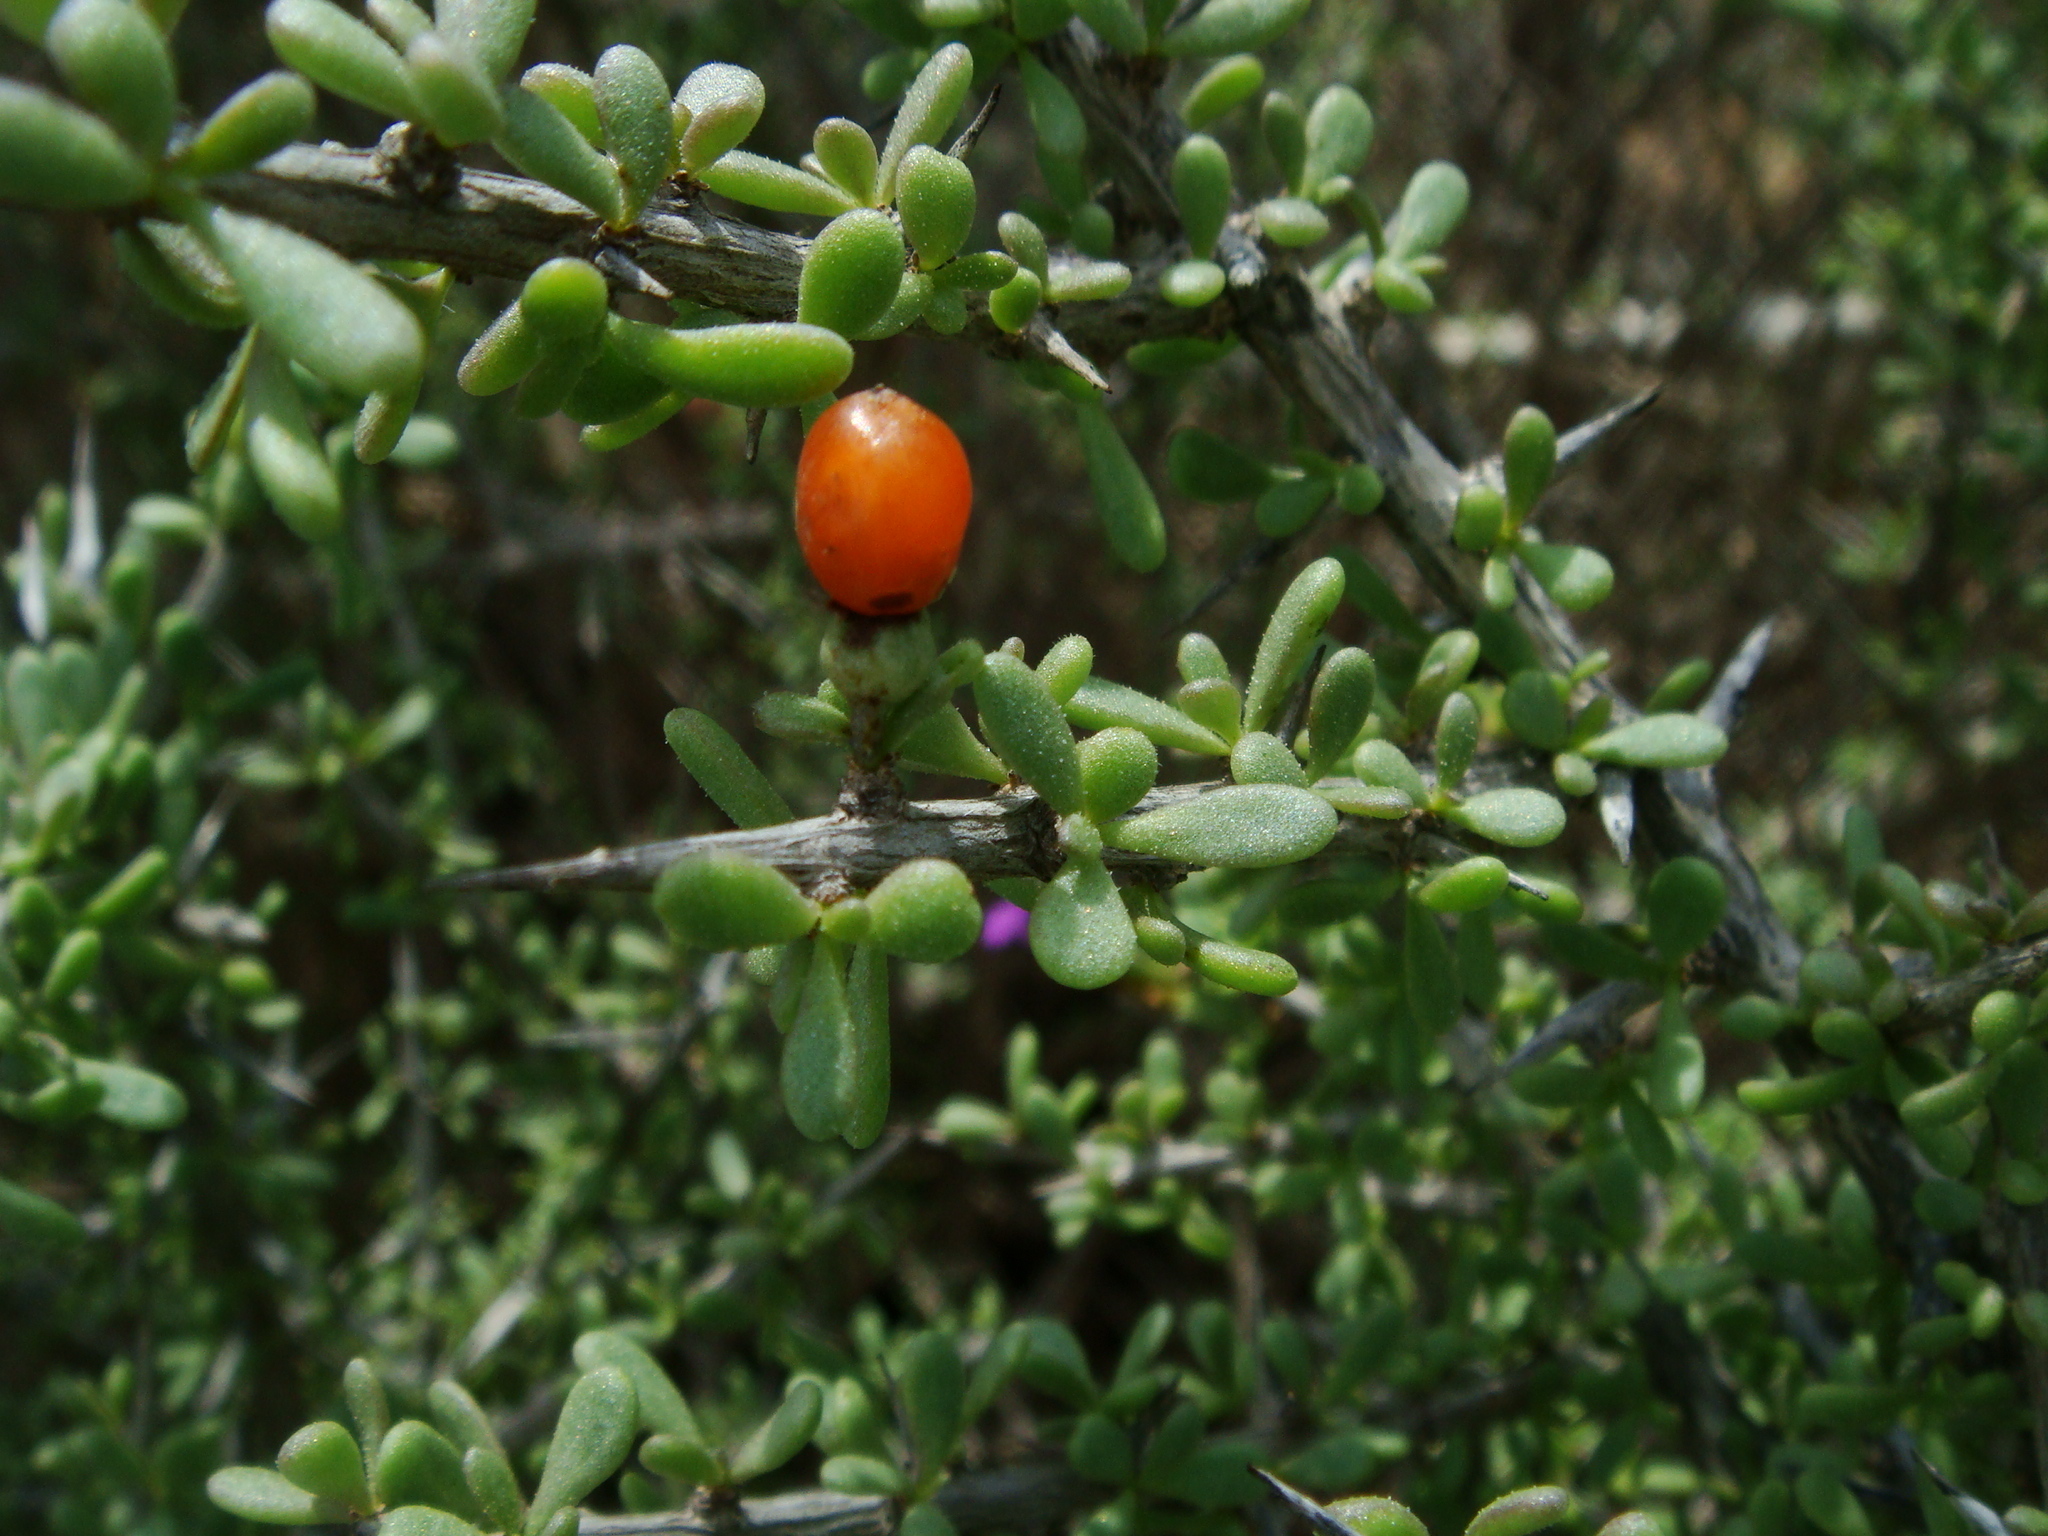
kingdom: Plantae
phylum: Tracheophyta
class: Magnoliopsida
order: Solanales
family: Solanaceae
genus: Lycium
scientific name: Lycium intricatum
